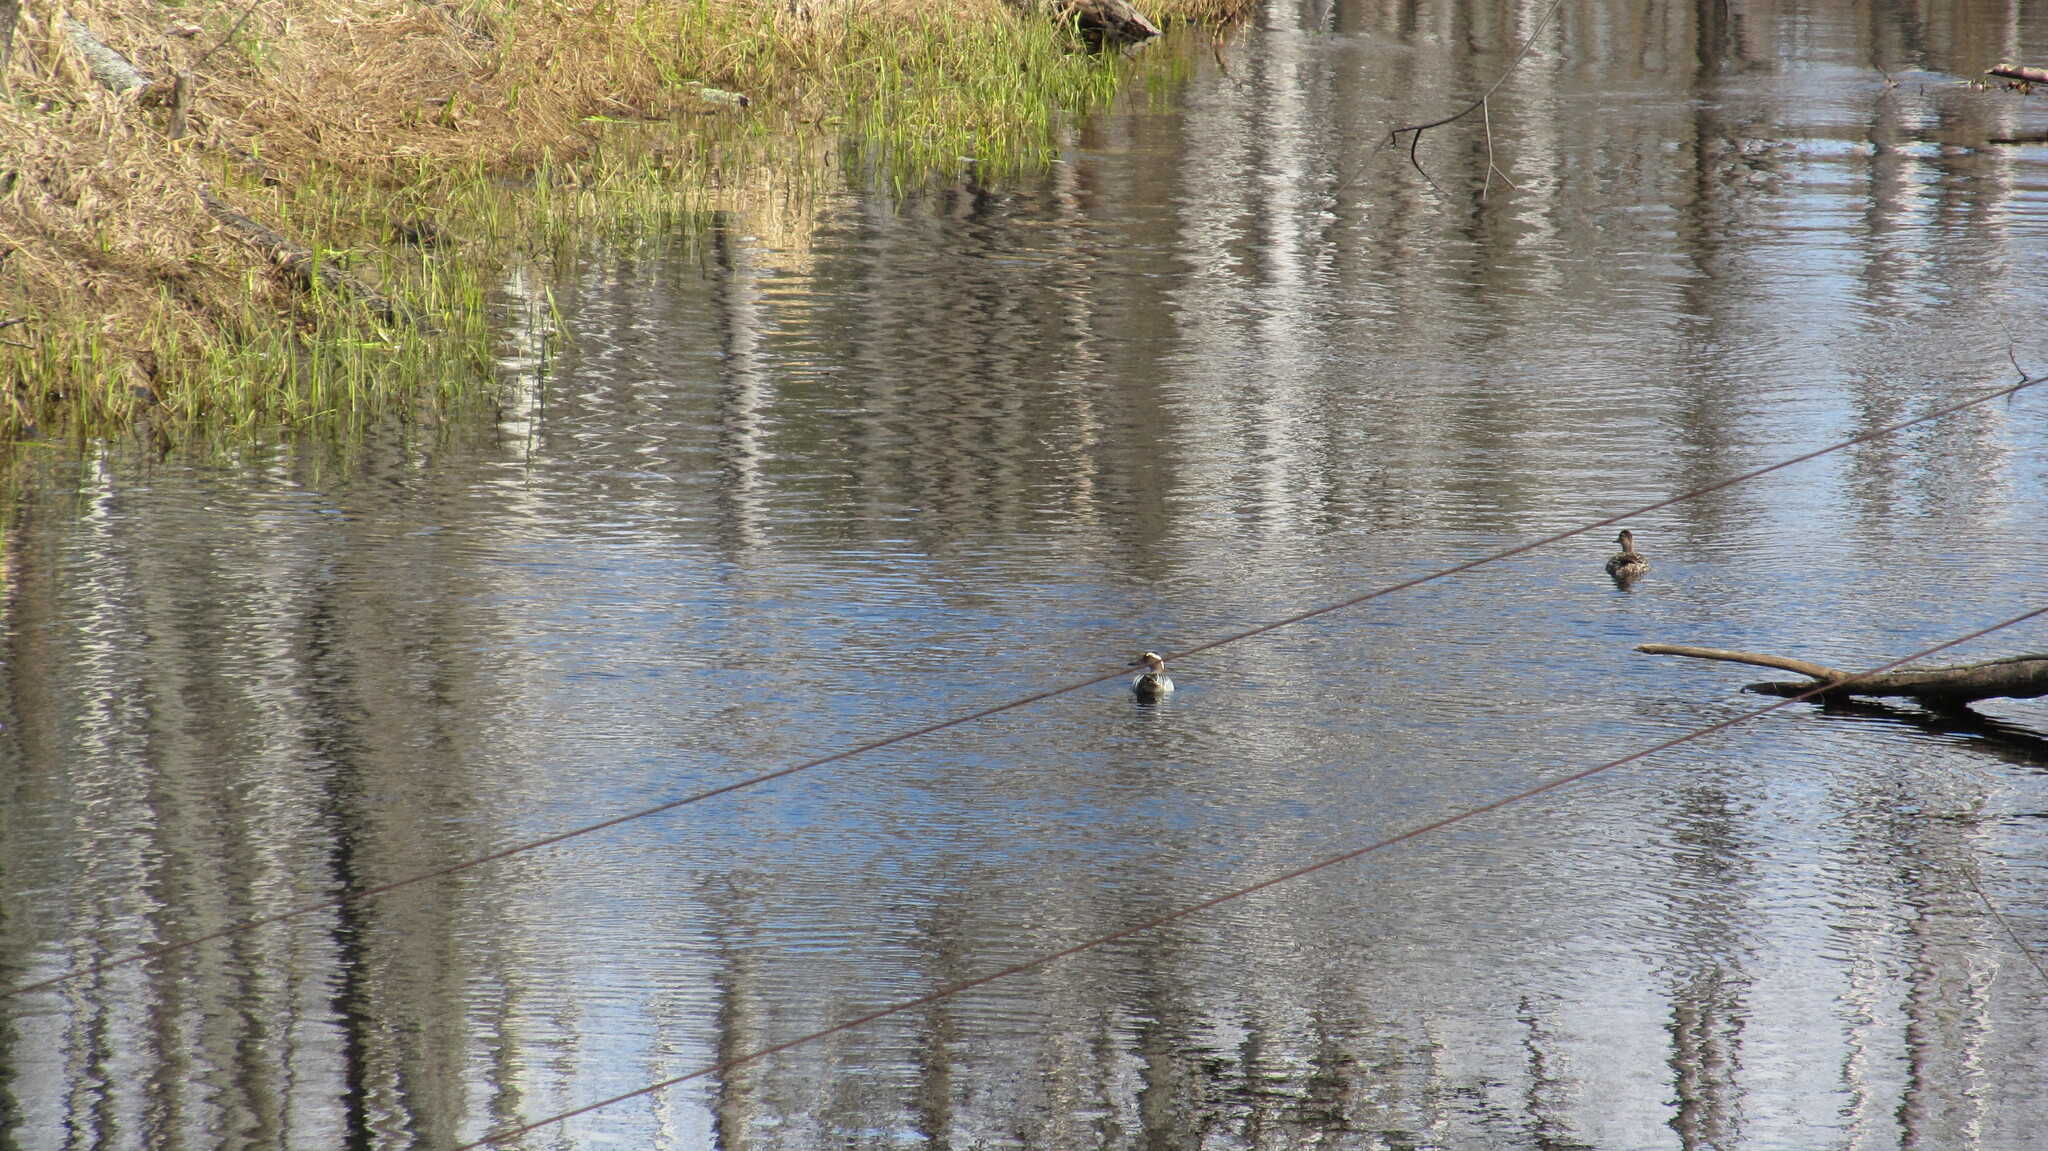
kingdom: Animalia
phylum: Chordata
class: Aves
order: Anseriformes
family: Anatidae
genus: Spatula
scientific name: Spatula querquedula
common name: Garganey
